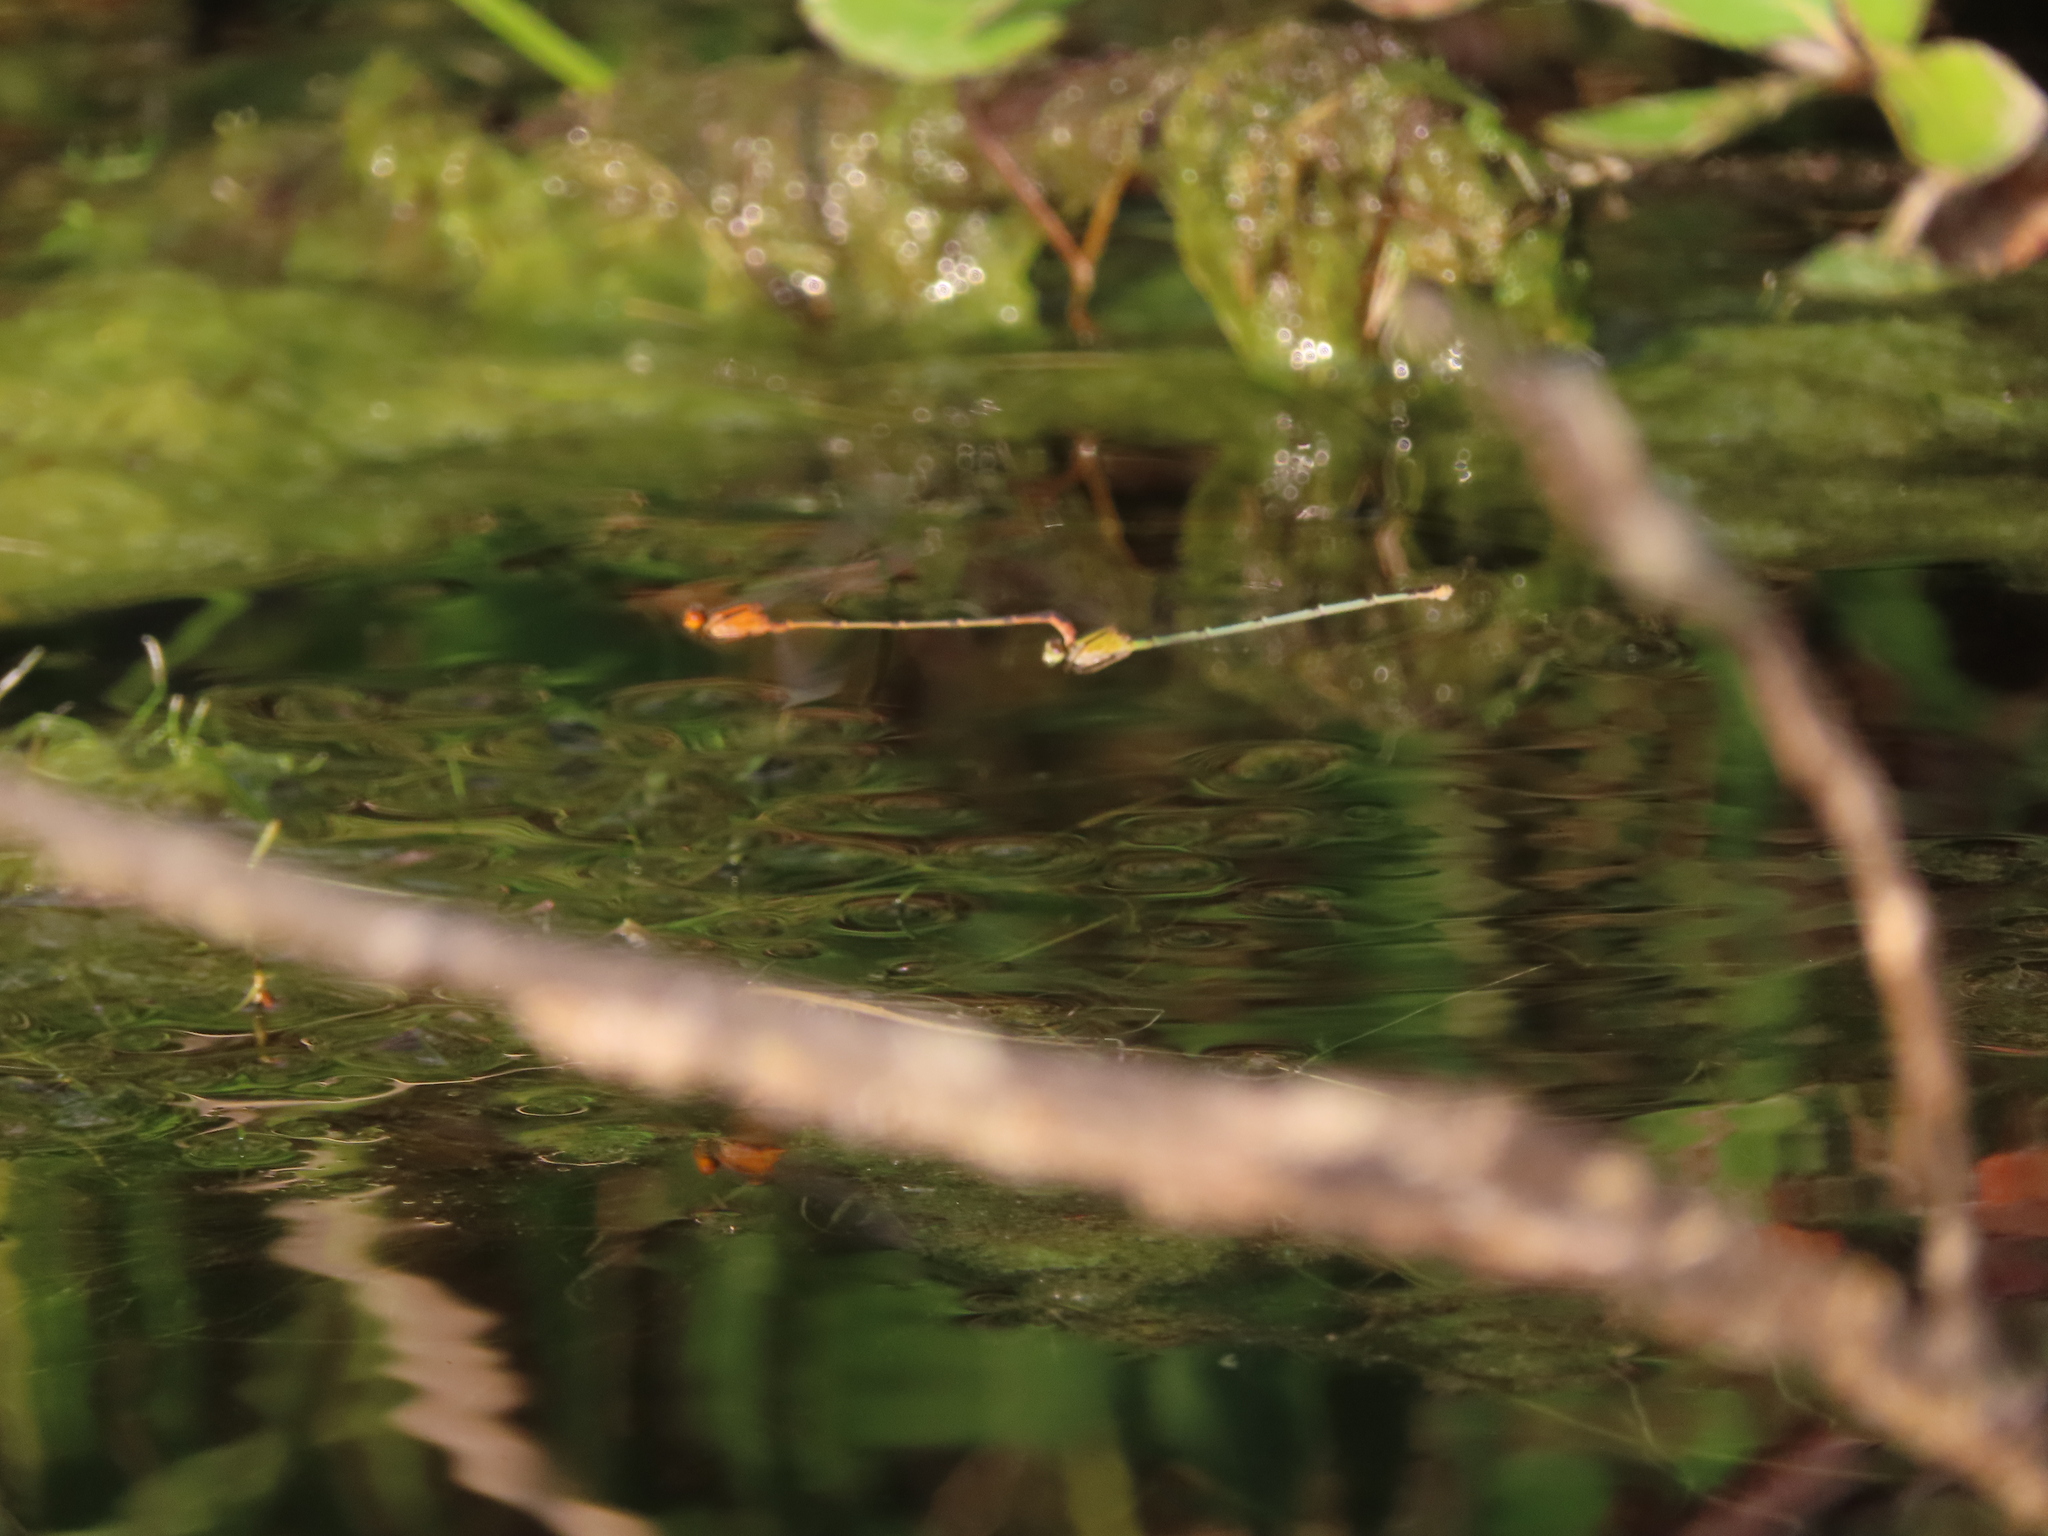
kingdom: Animalia
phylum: Arthropoda
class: Insecta
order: Odonata
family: Coenagrionidae
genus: Enallagma
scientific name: Enallagma signatum
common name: Orange bluet
